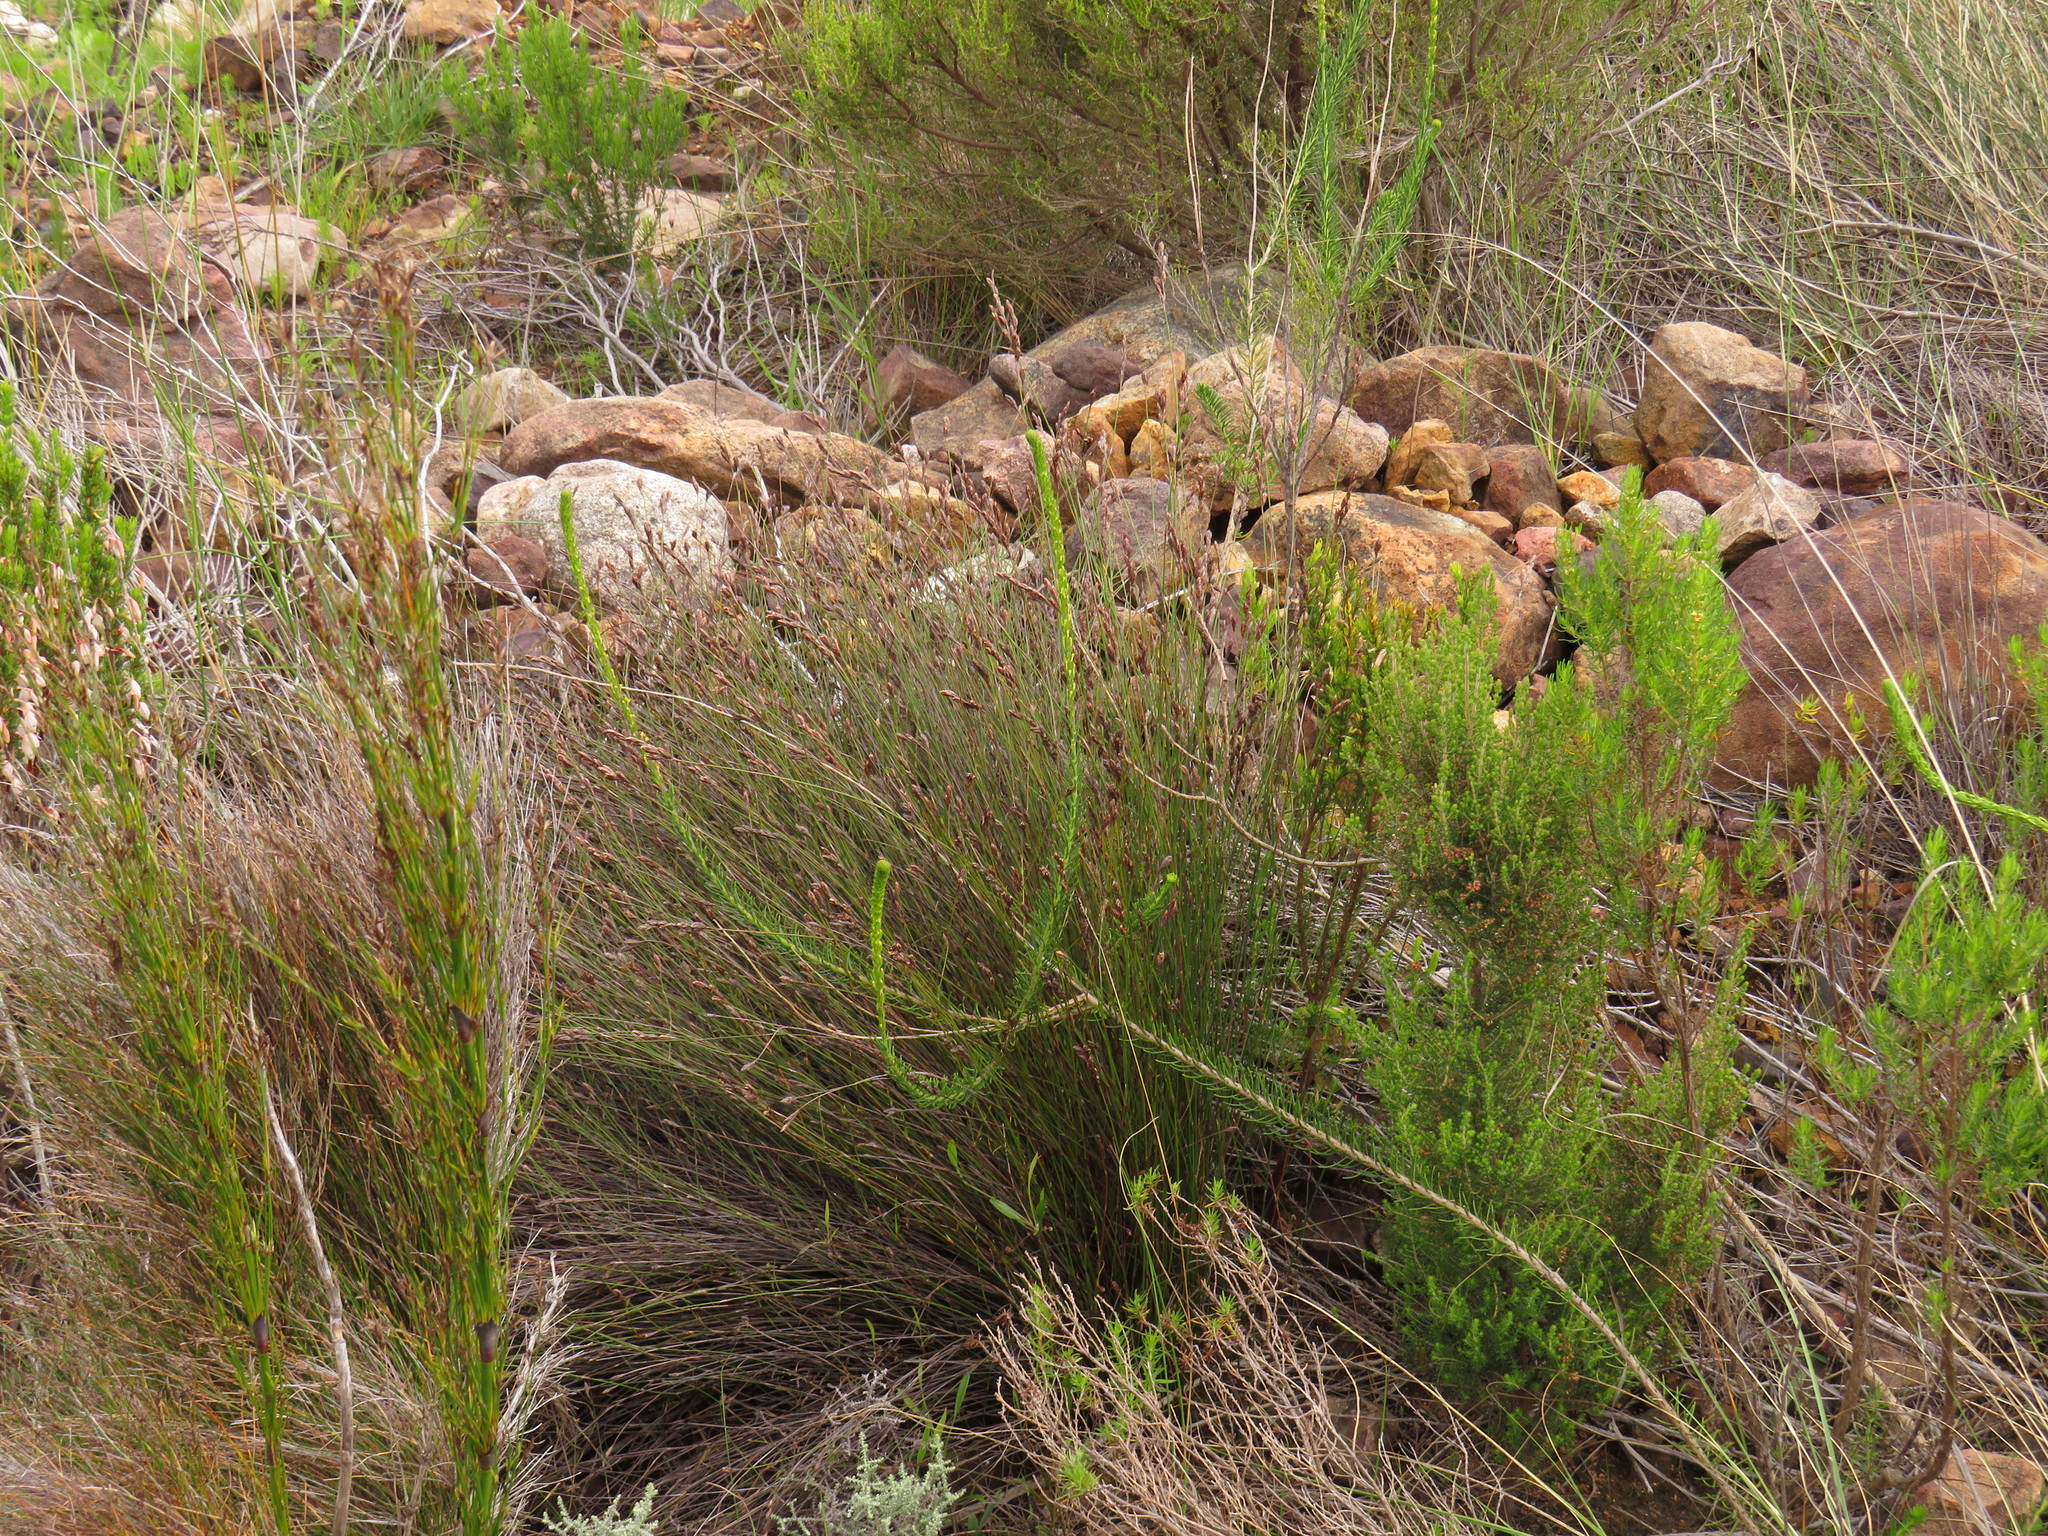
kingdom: Plantae
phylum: Tracheophyta
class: Magnoliopsida
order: Lamiales
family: Scrophulariaceae
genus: Microdon
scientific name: Microdon dubius
